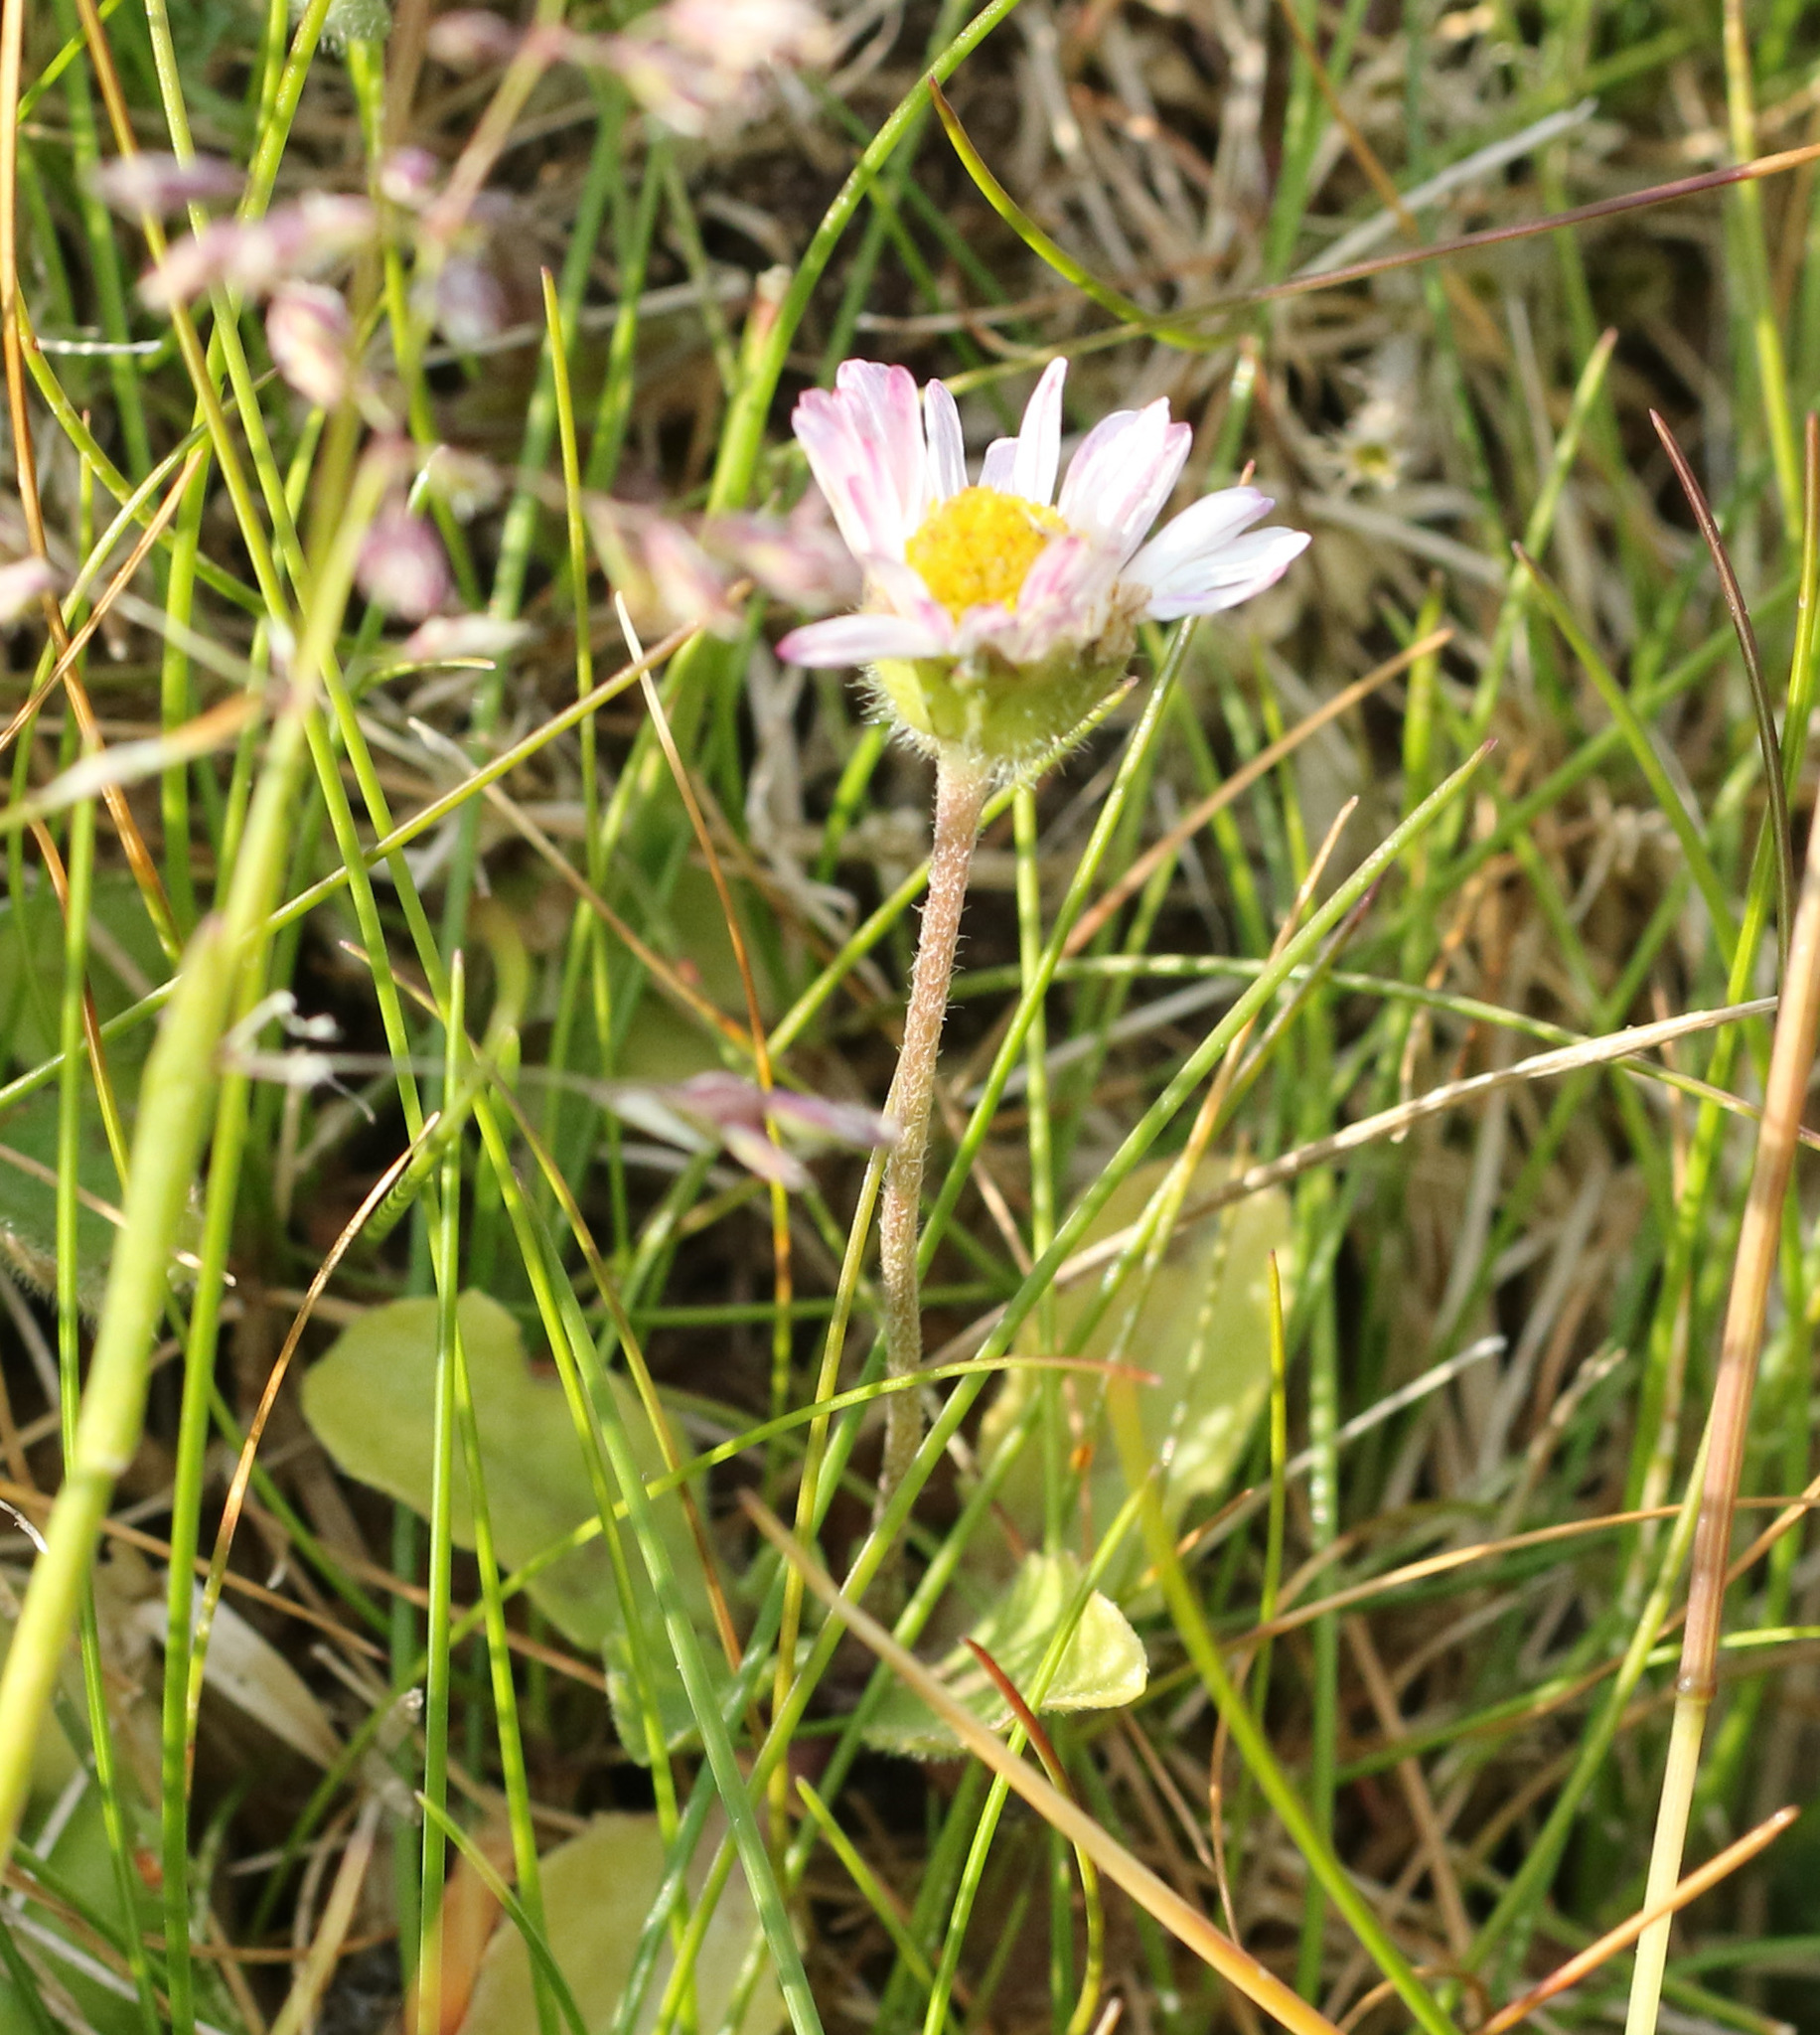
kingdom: Plantae
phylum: Tracheophyta
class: Magnoliopsida
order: Asterales
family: Asteraceae
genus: Bellis
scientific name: Bellis perennis
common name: Lawndaisy
